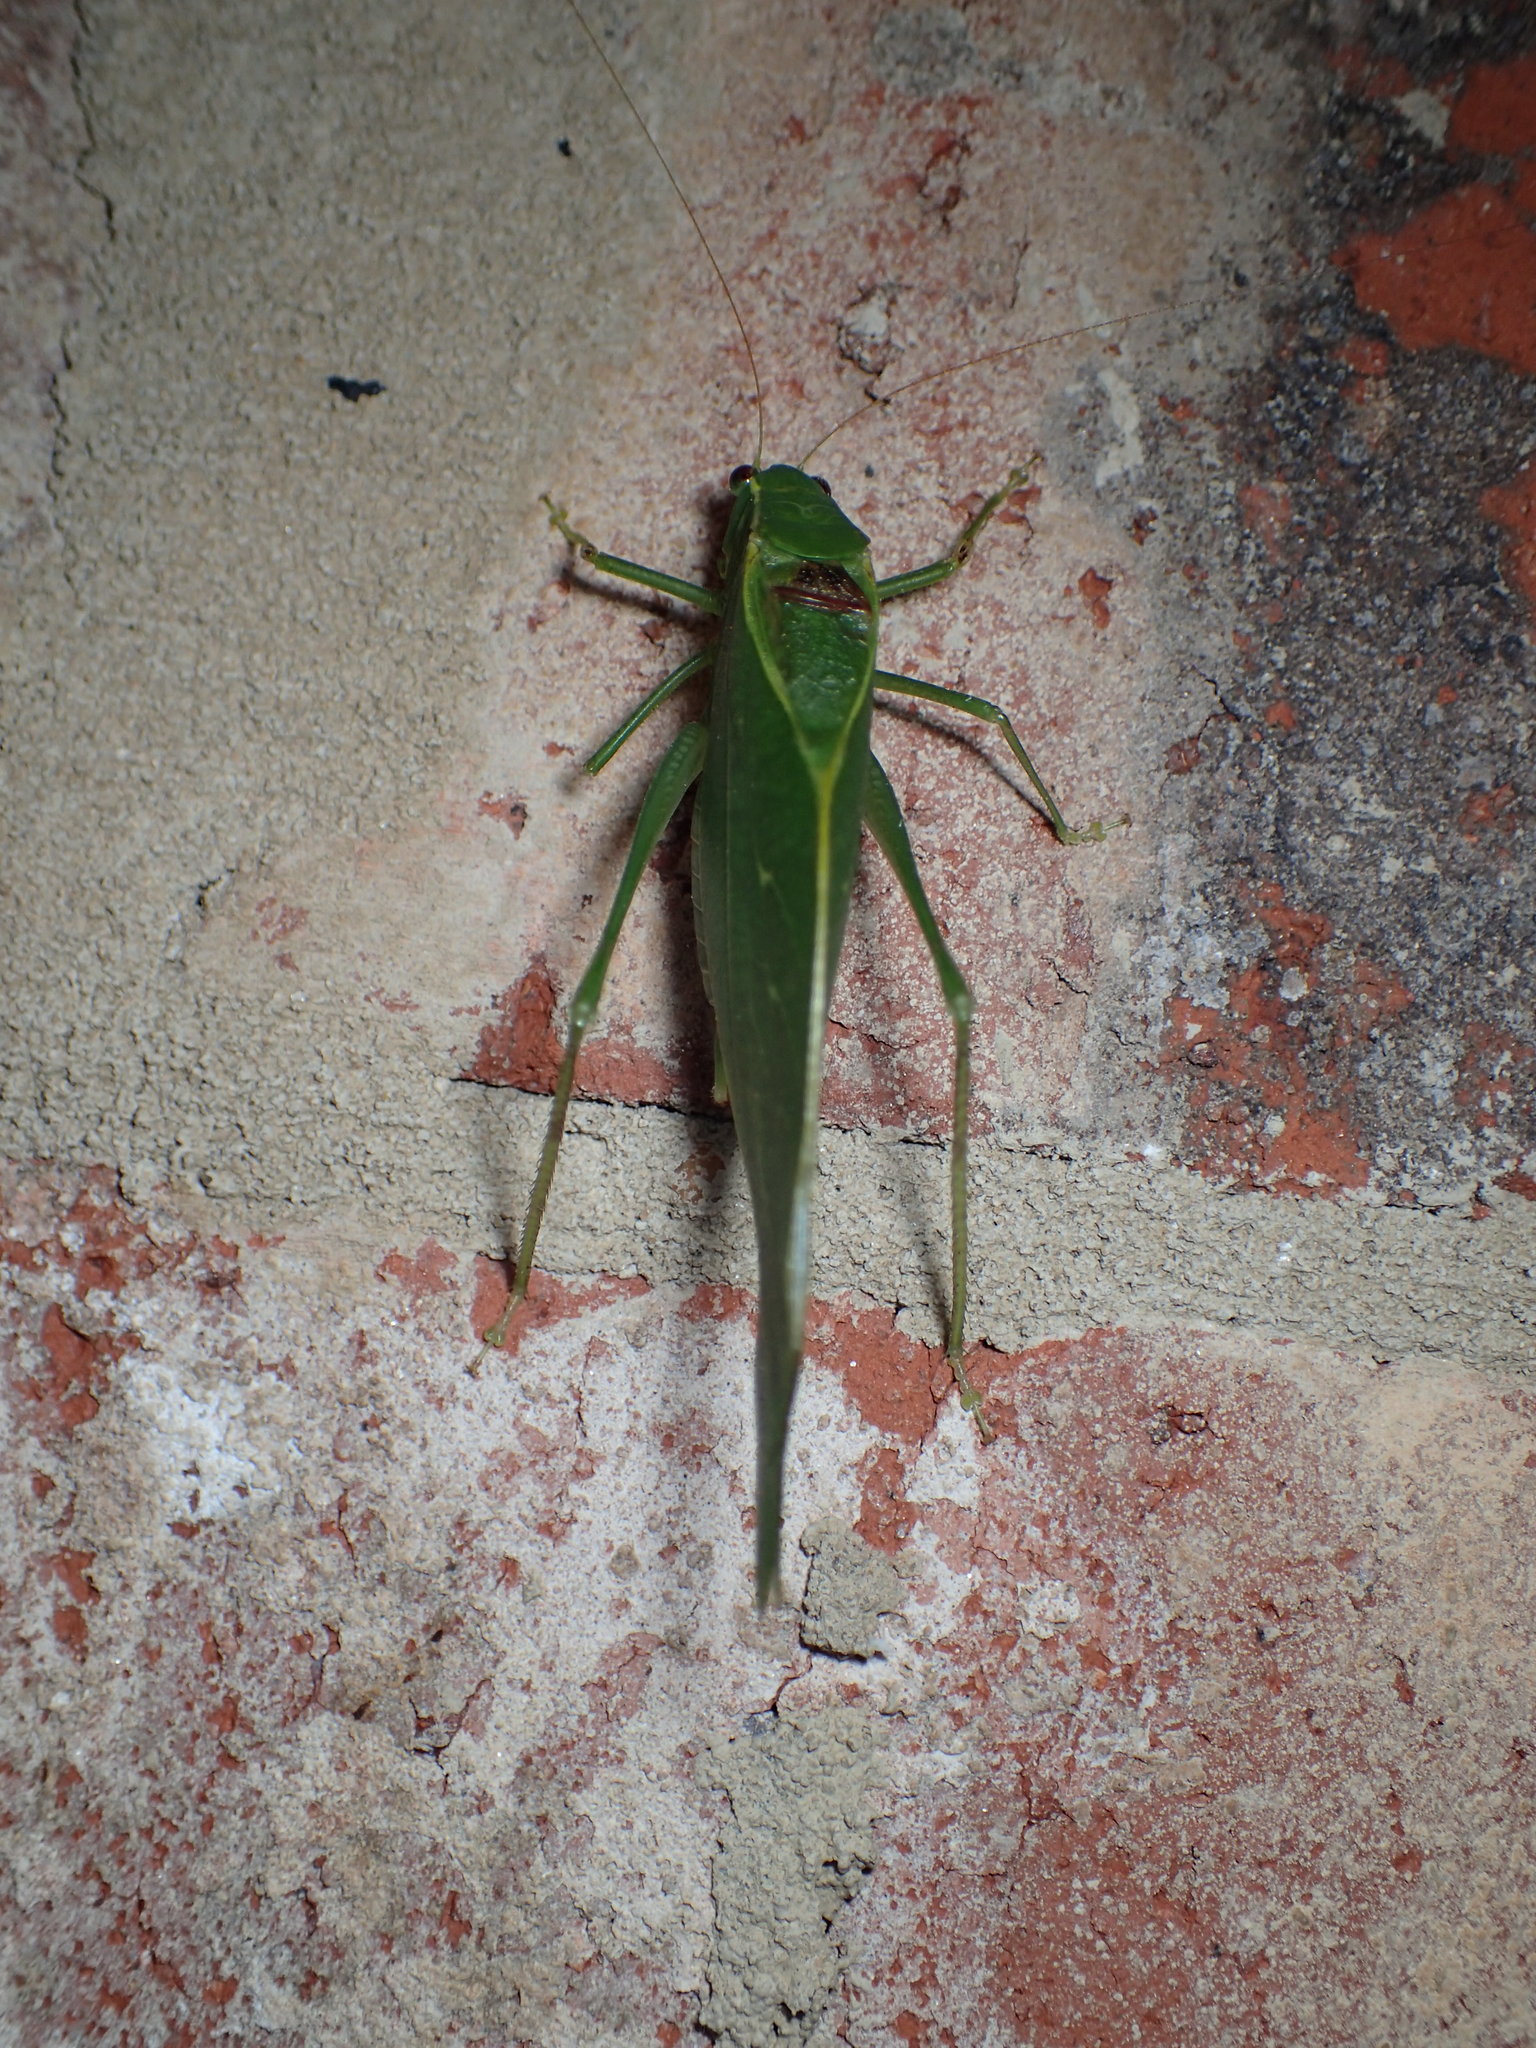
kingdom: Animalia
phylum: Arthropoda
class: Insecta
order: Orthoptera
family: Tettigoniidae
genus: Microcentrum
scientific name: Microcentrum retinerve
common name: Angular-winged katydid
